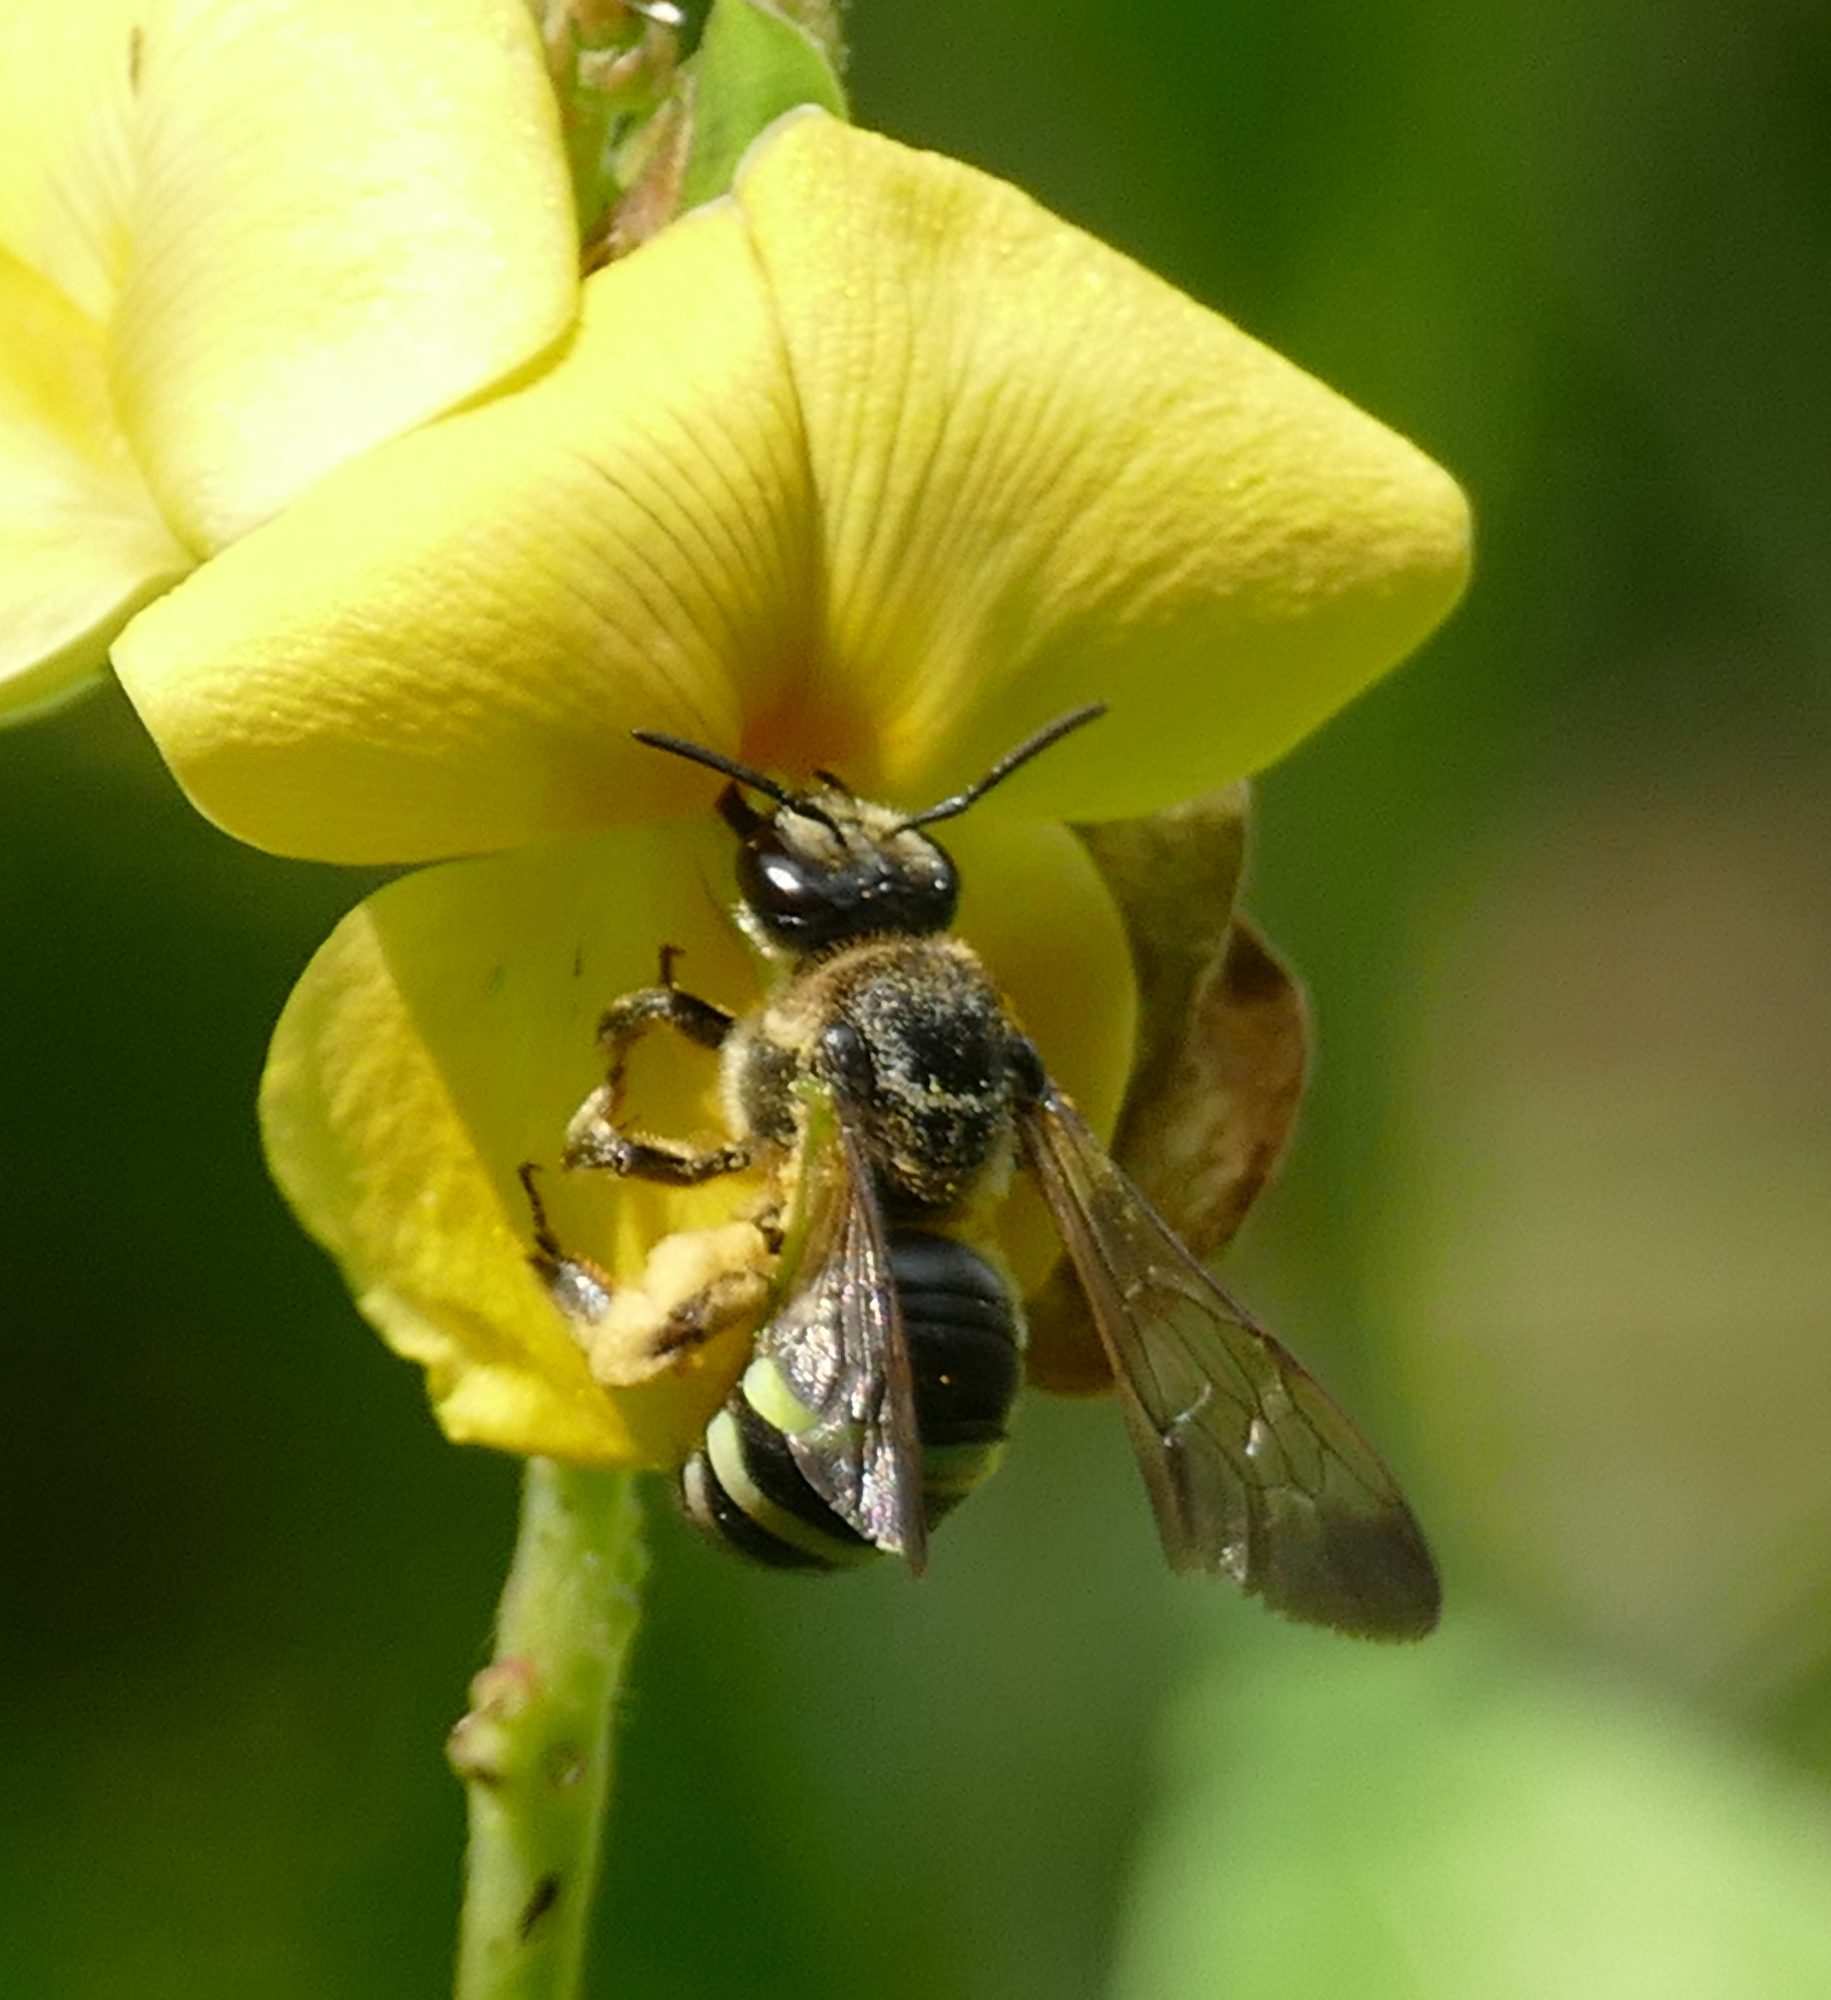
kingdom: Animalia
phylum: Arthropoda
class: Insecta
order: Hymenoptera
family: Halictidae
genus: Nomia
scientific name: Nomia nortoni
